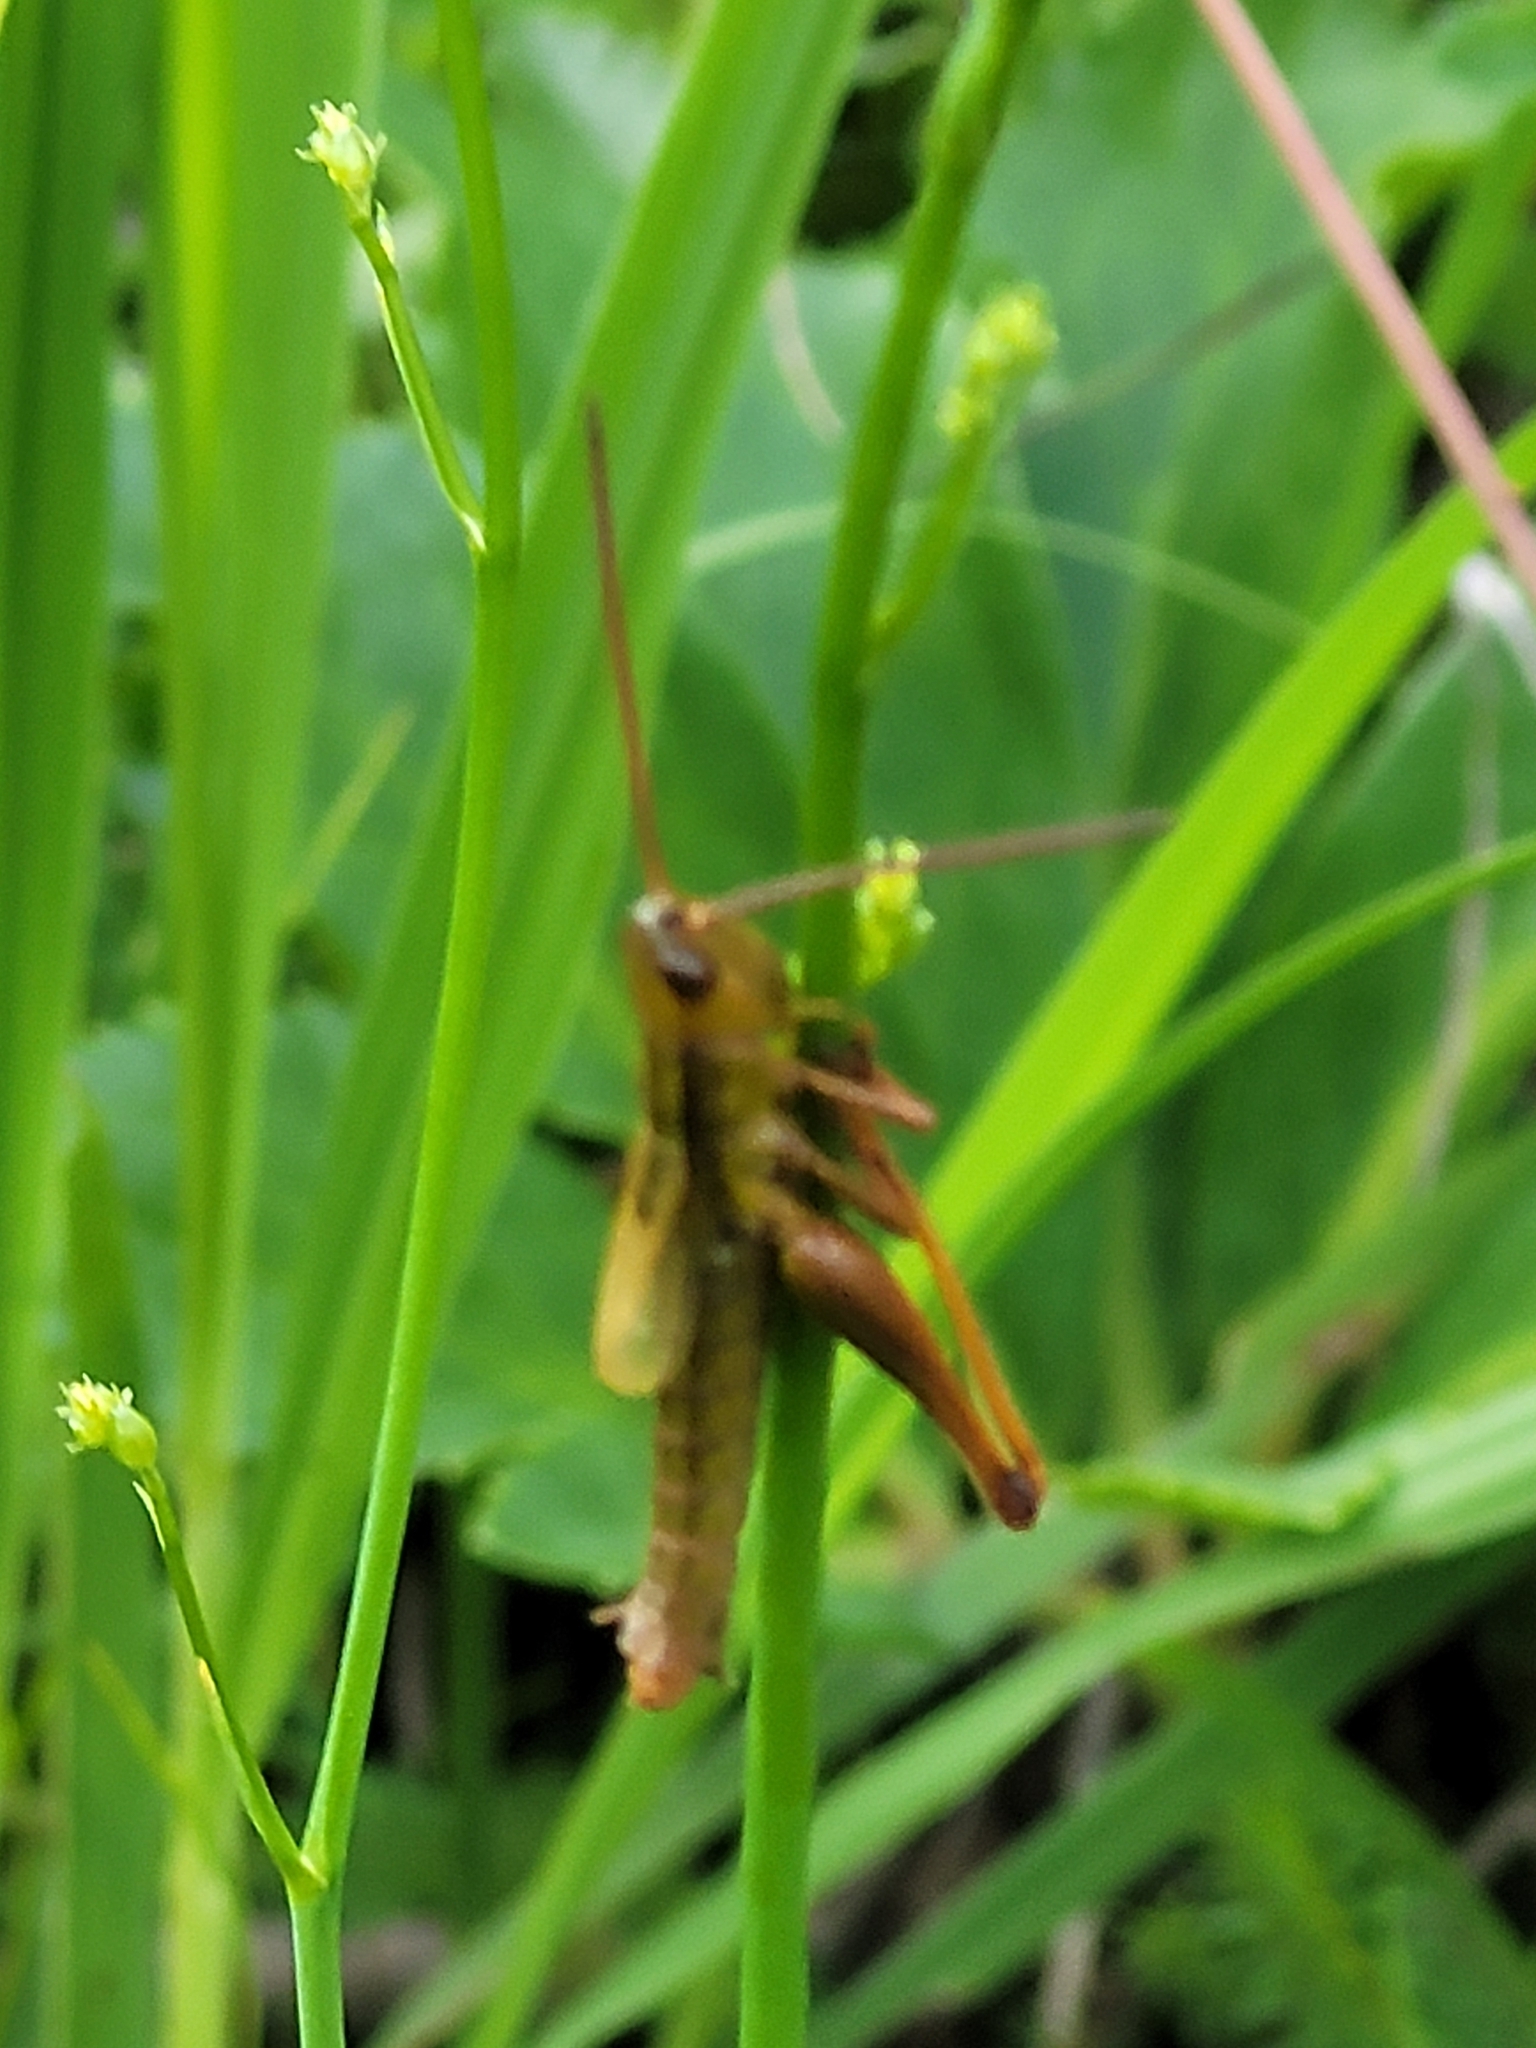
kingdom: Animalia
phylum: Arthropoda
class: Insecta
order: Orthoptera
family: Acrididae
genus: Euthystira
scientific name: Euthystira brachyptera
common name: Small gold grasshopper
